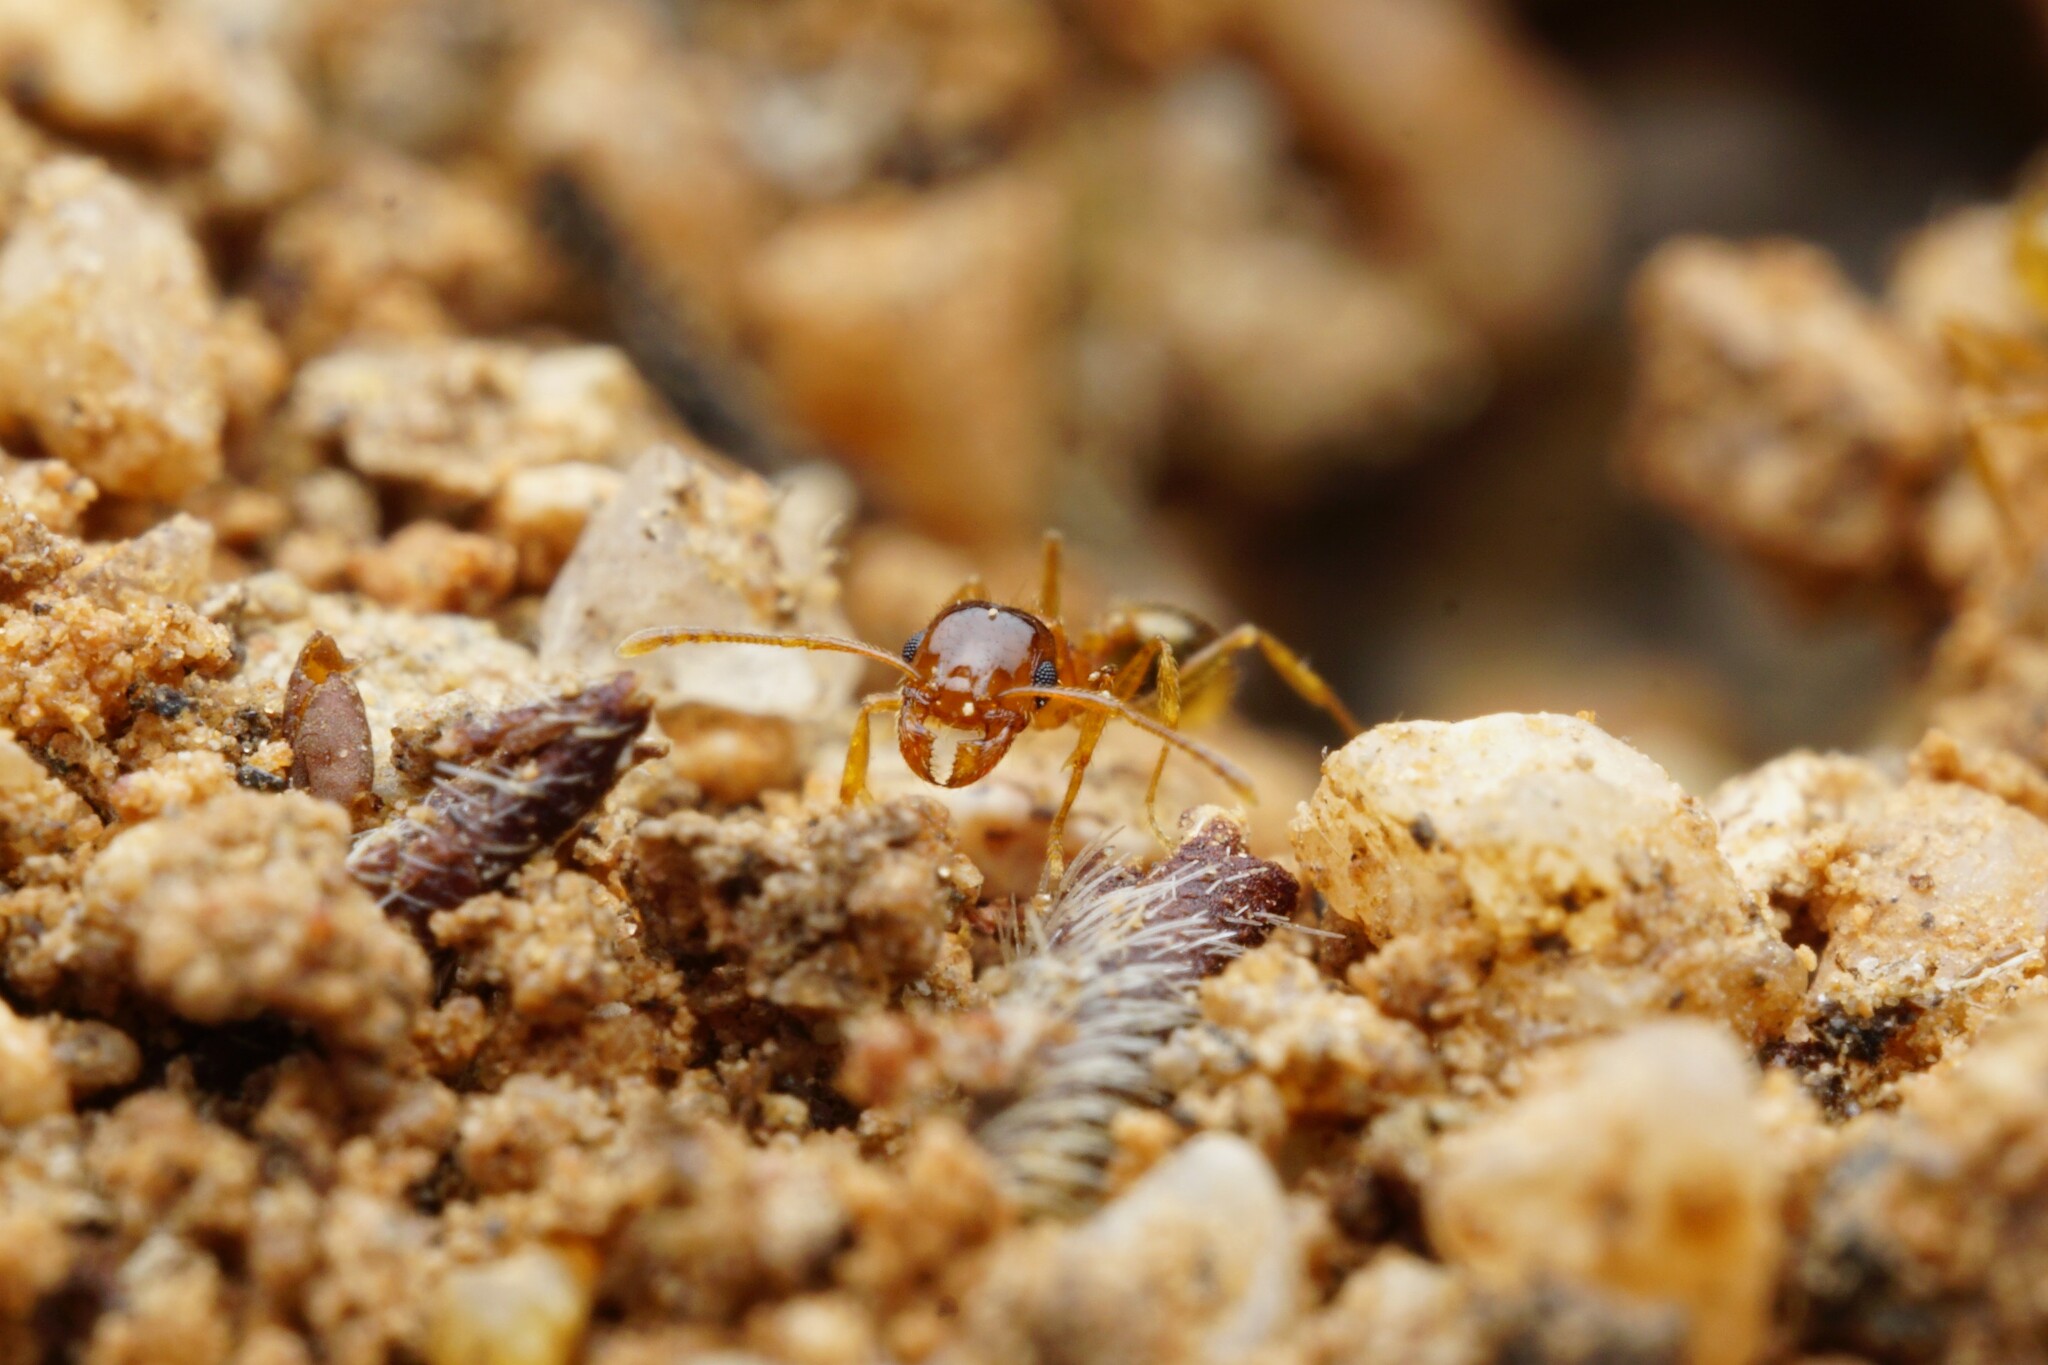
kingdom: Animalia
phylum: Arthropoda
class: Insecta
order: Hymenoptera
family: Formicidae
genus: Pheidole
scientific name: Pheidole gilvescens
